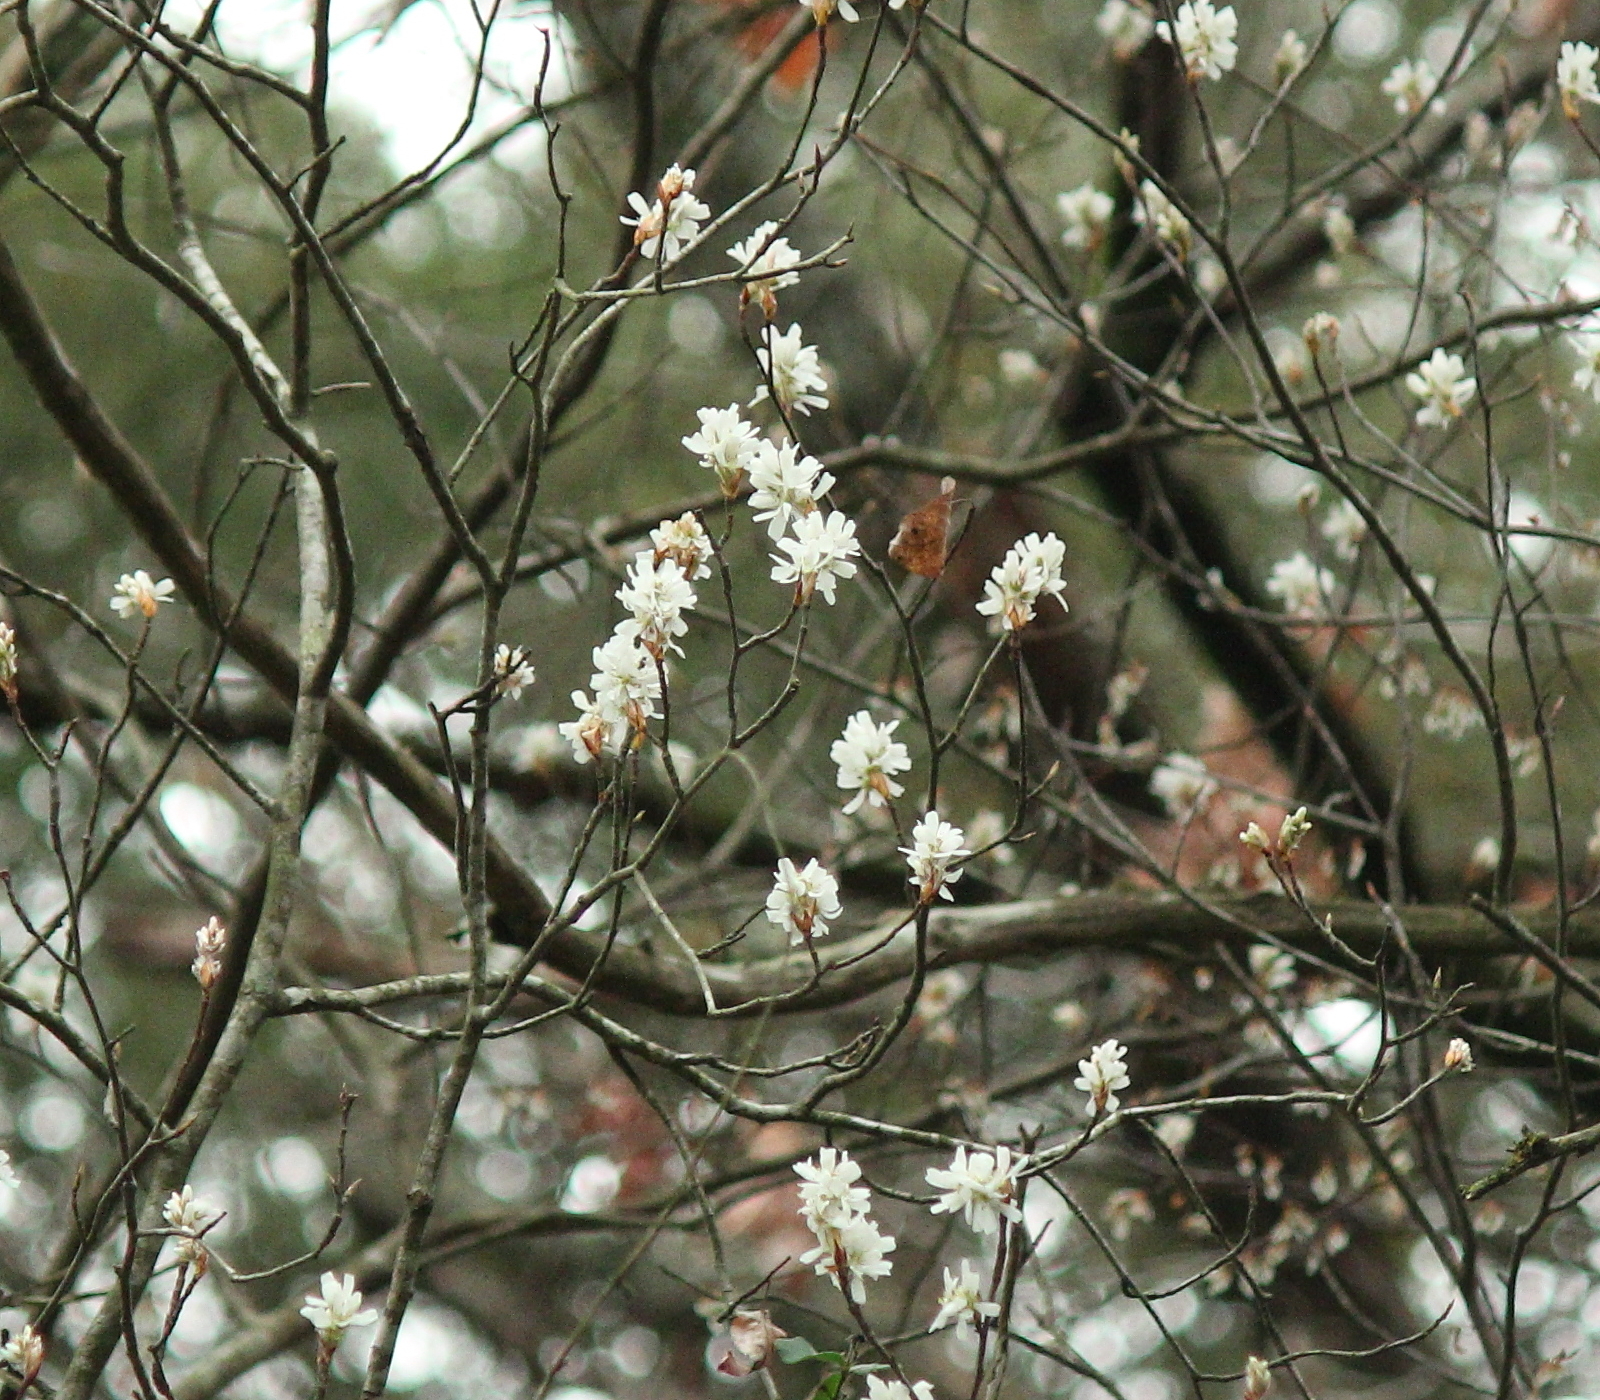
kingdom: Plantae
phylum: Tracheophyta
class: Magnoliopsida
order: Rosales
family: Rosaceae
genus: Amelanchier
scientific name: Amelanchier arborea
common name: Downy serviceberry
